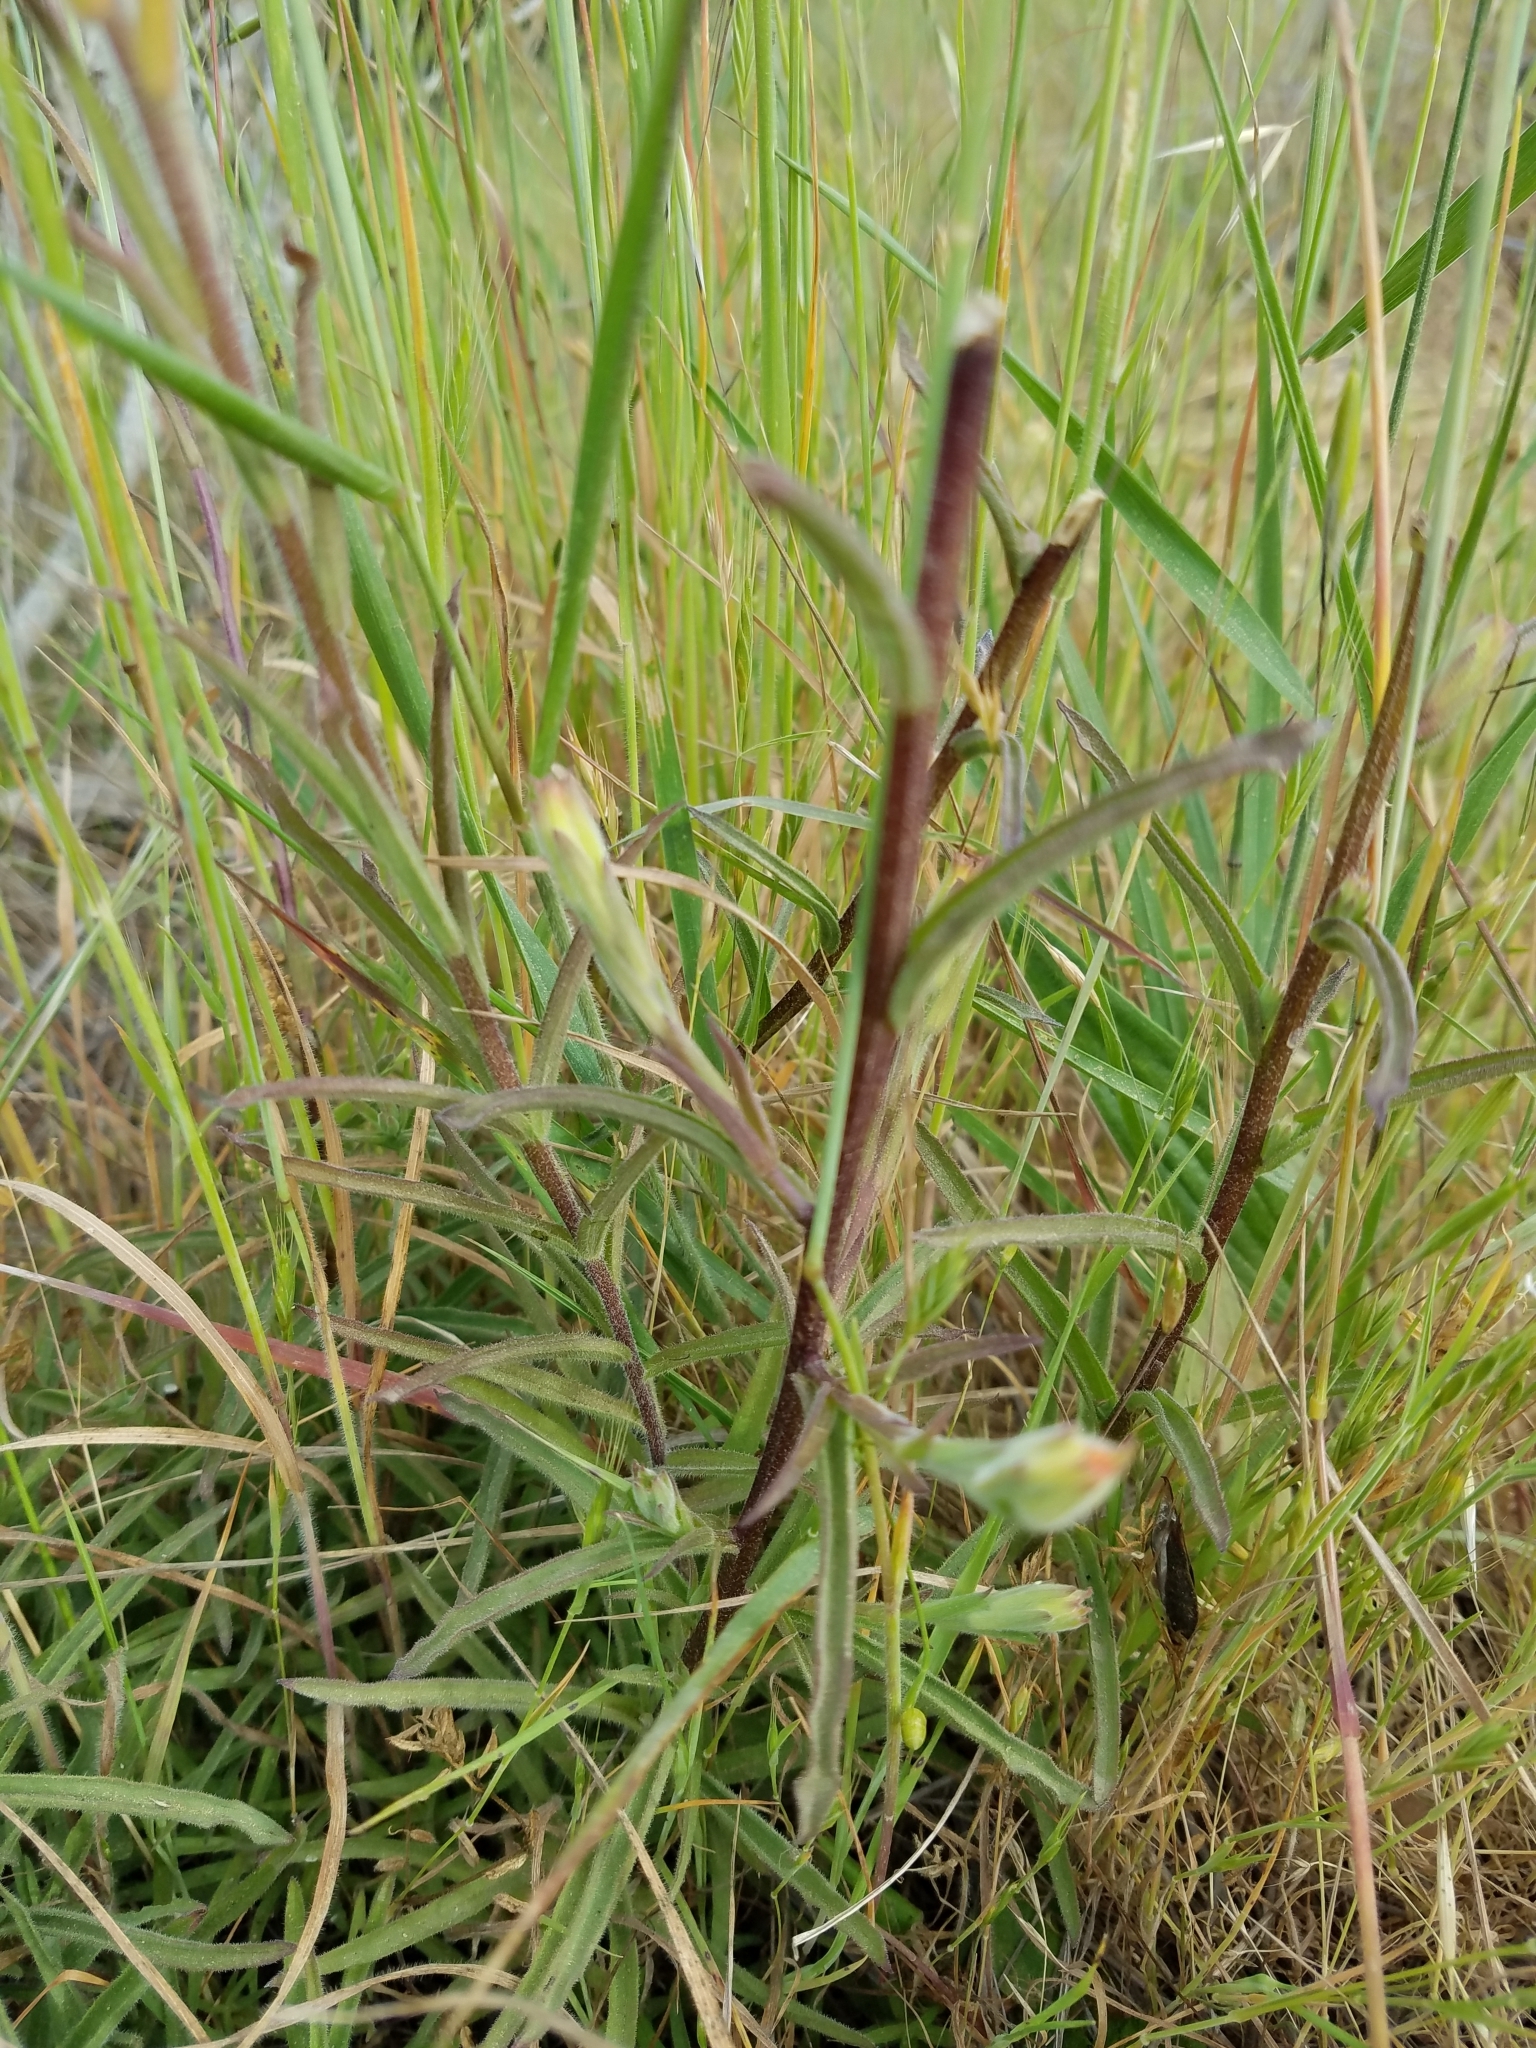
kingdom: Plantae
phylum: Tracheophyta
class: Magnoliopsida
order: Lamiales
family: Orobanchaceae
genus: Castilleja
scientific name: Castilleja subinclusa
